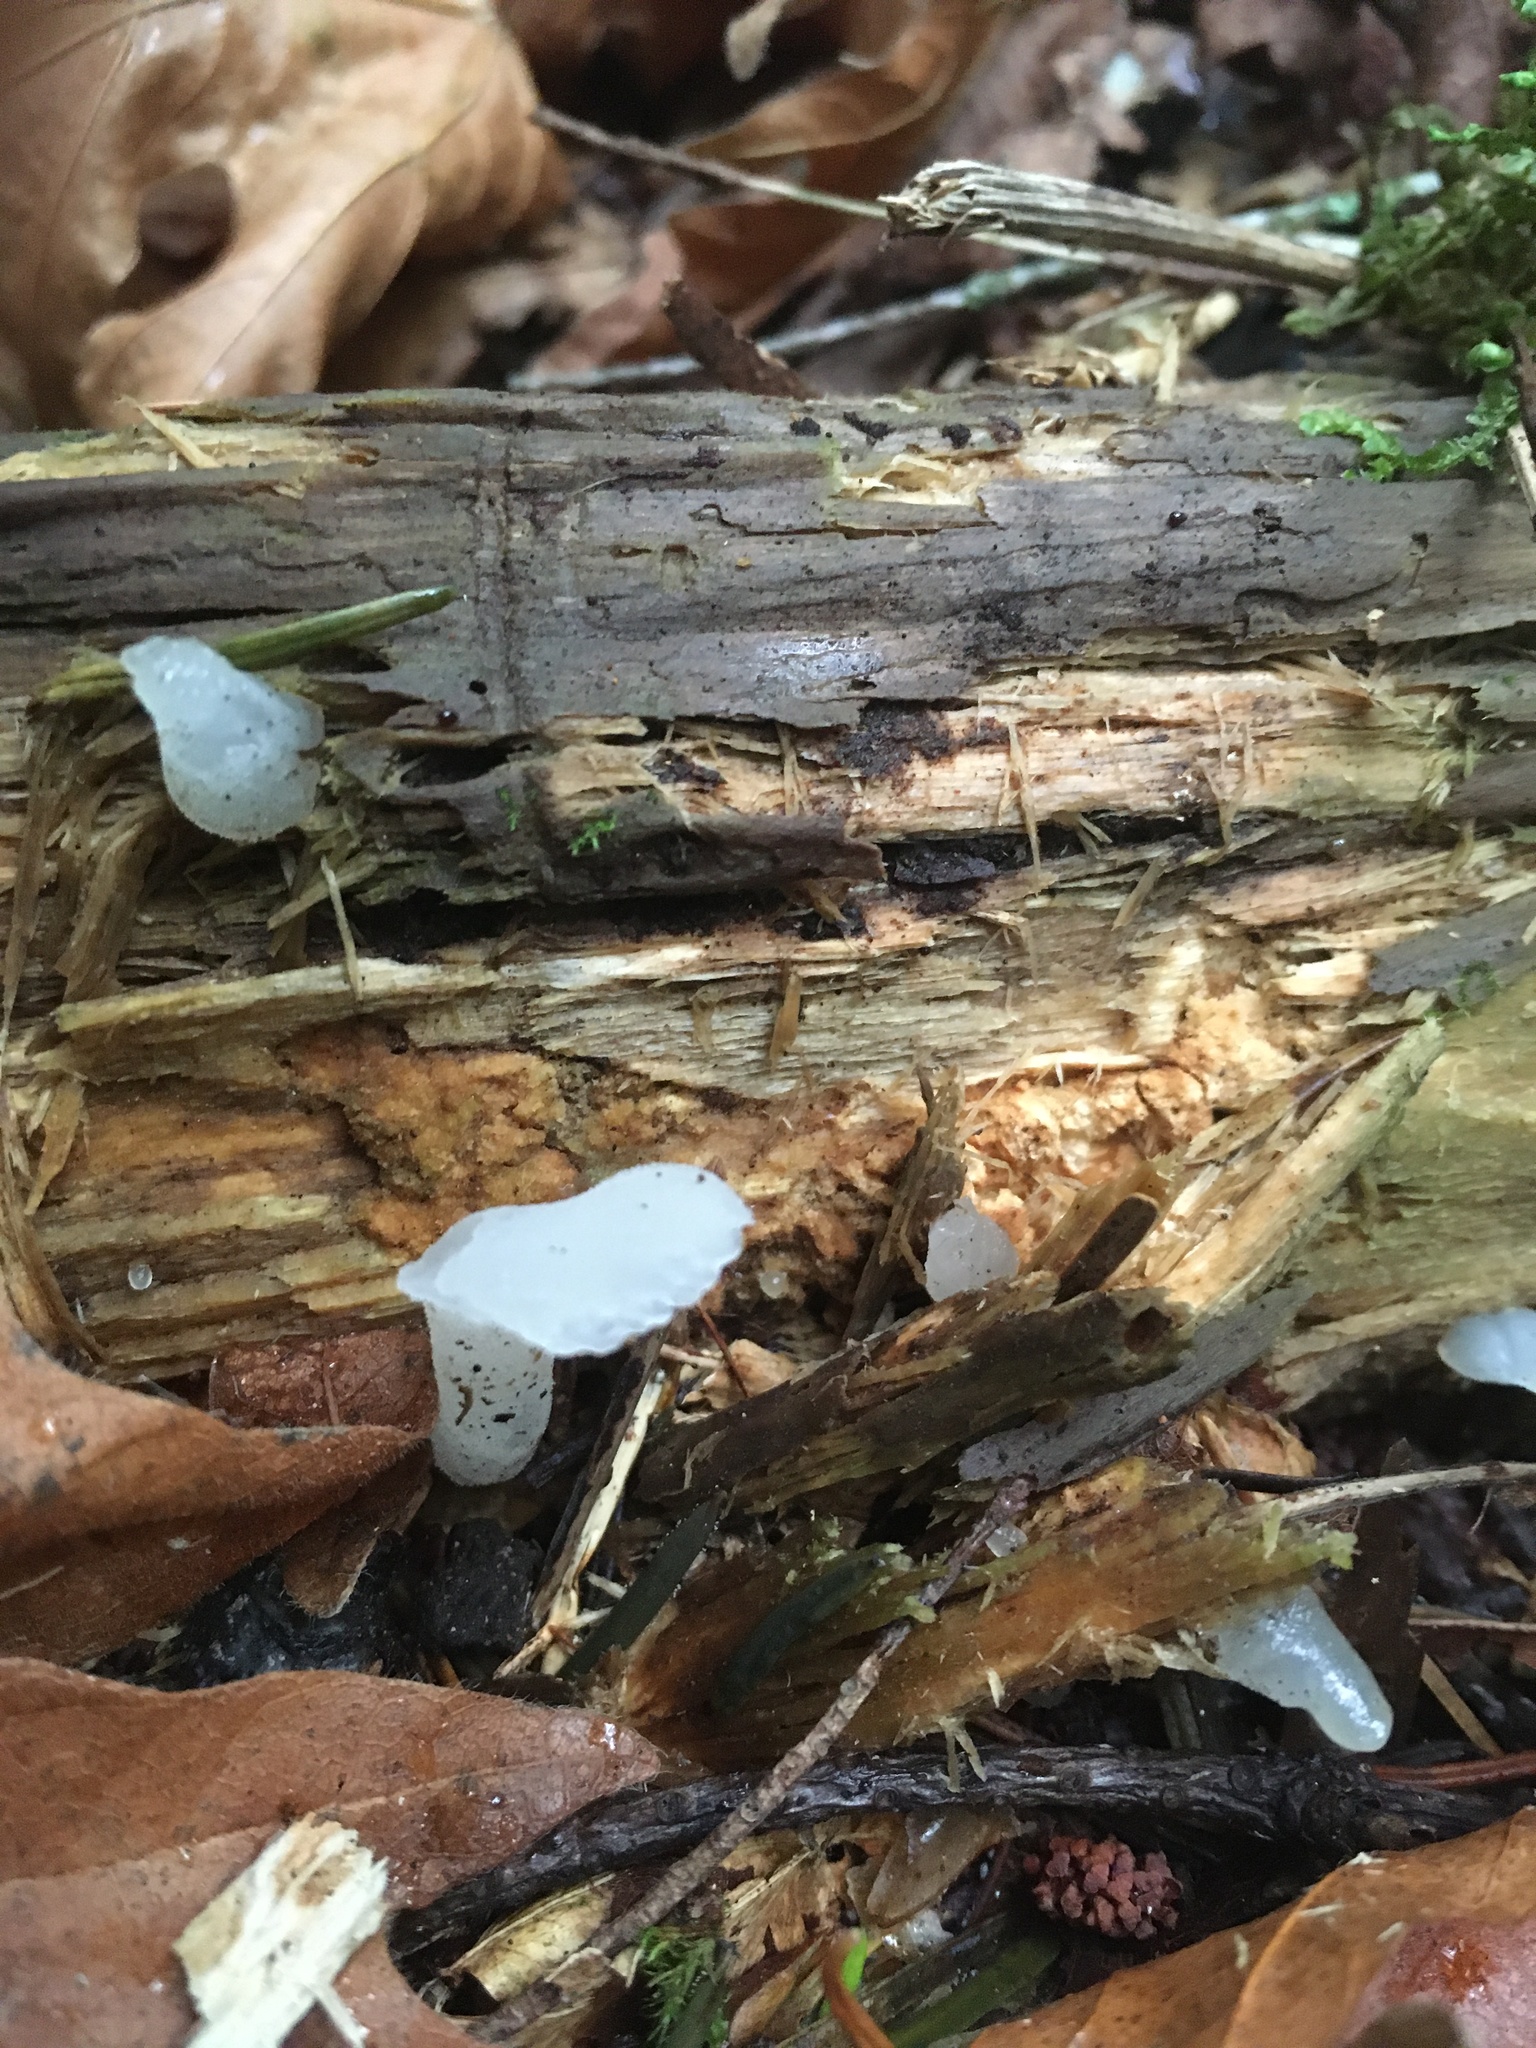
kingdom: Fungi
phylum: Basidiomycota
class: Agaricomycetes
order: Auriculariales
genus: Pseudohydnum
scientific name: Pseudohydnum gelatinosum
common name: Jelly tongue
